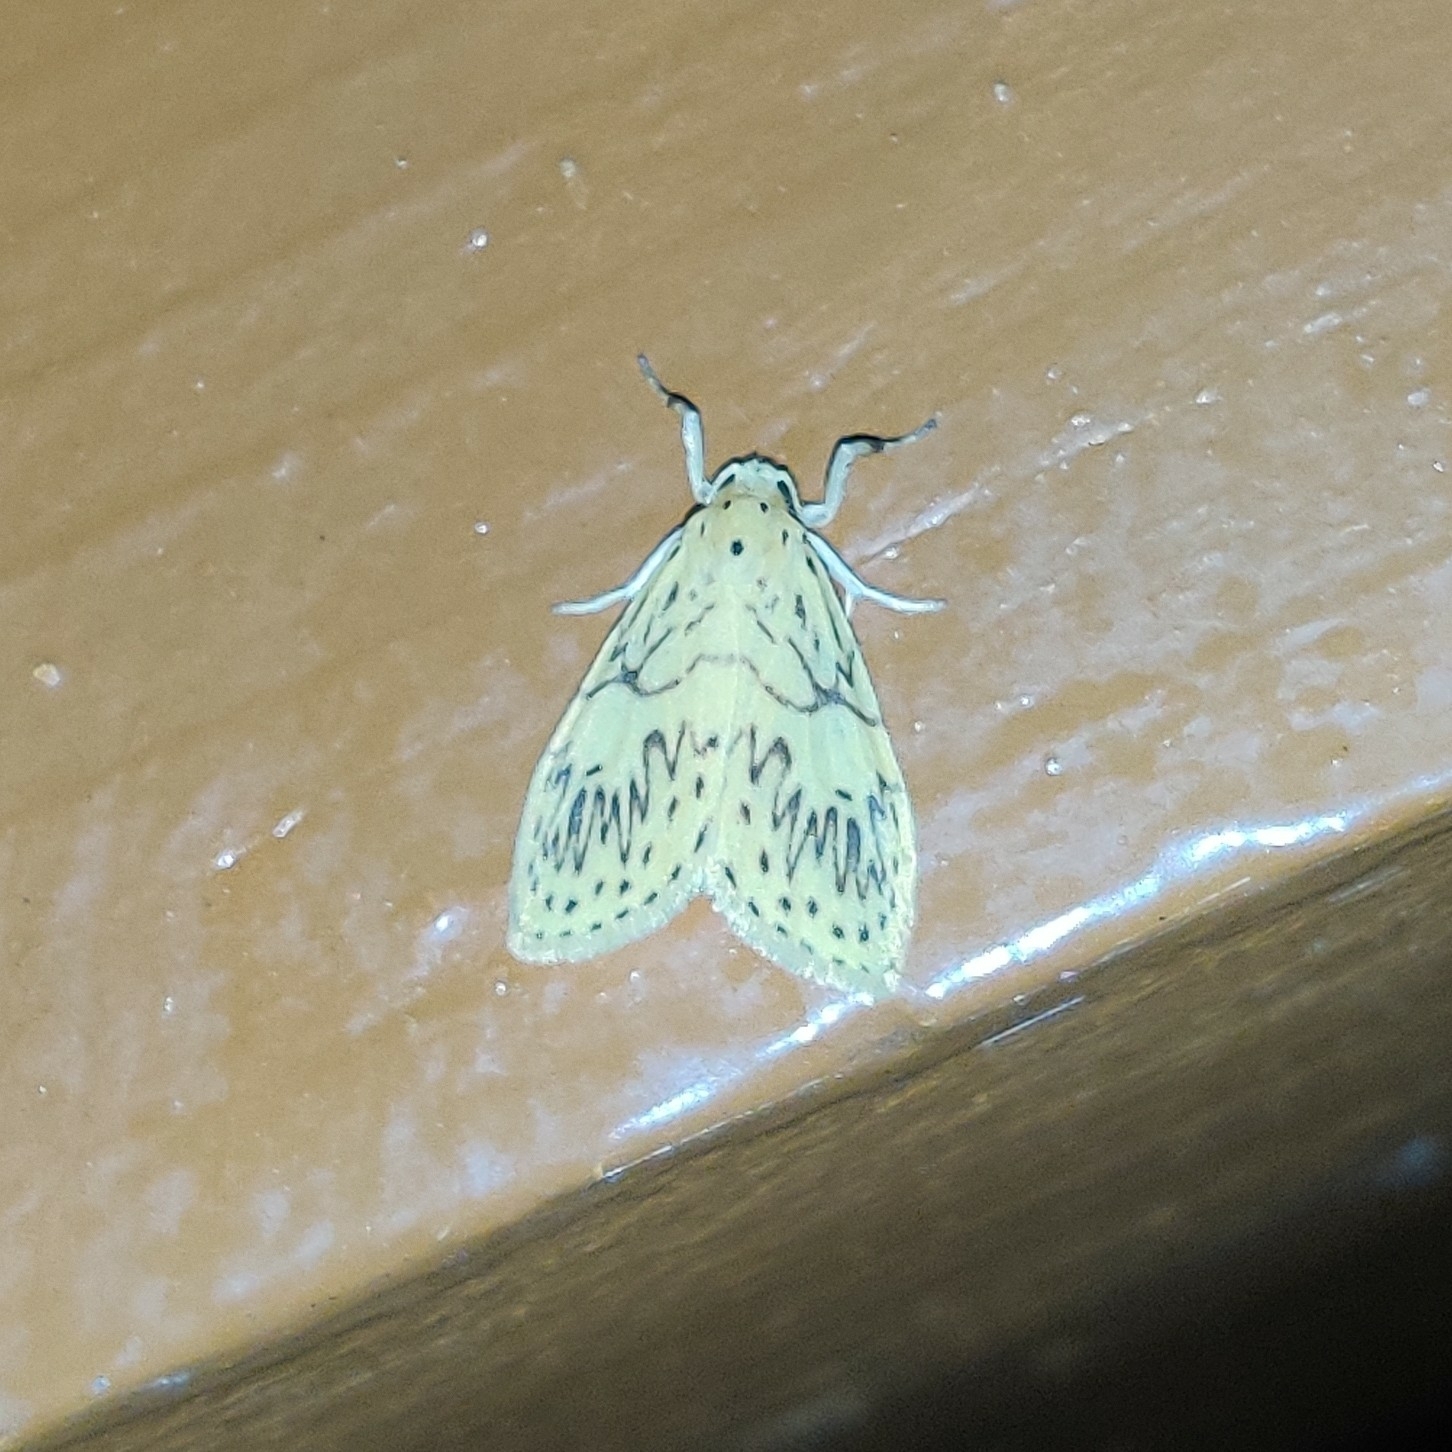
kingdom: Animalia
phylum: Arthropoda
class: Insecta
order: Lepidoptera
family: Erebidae
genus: Pseudobarsine
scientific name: Pseudobarsine bombdilensis
